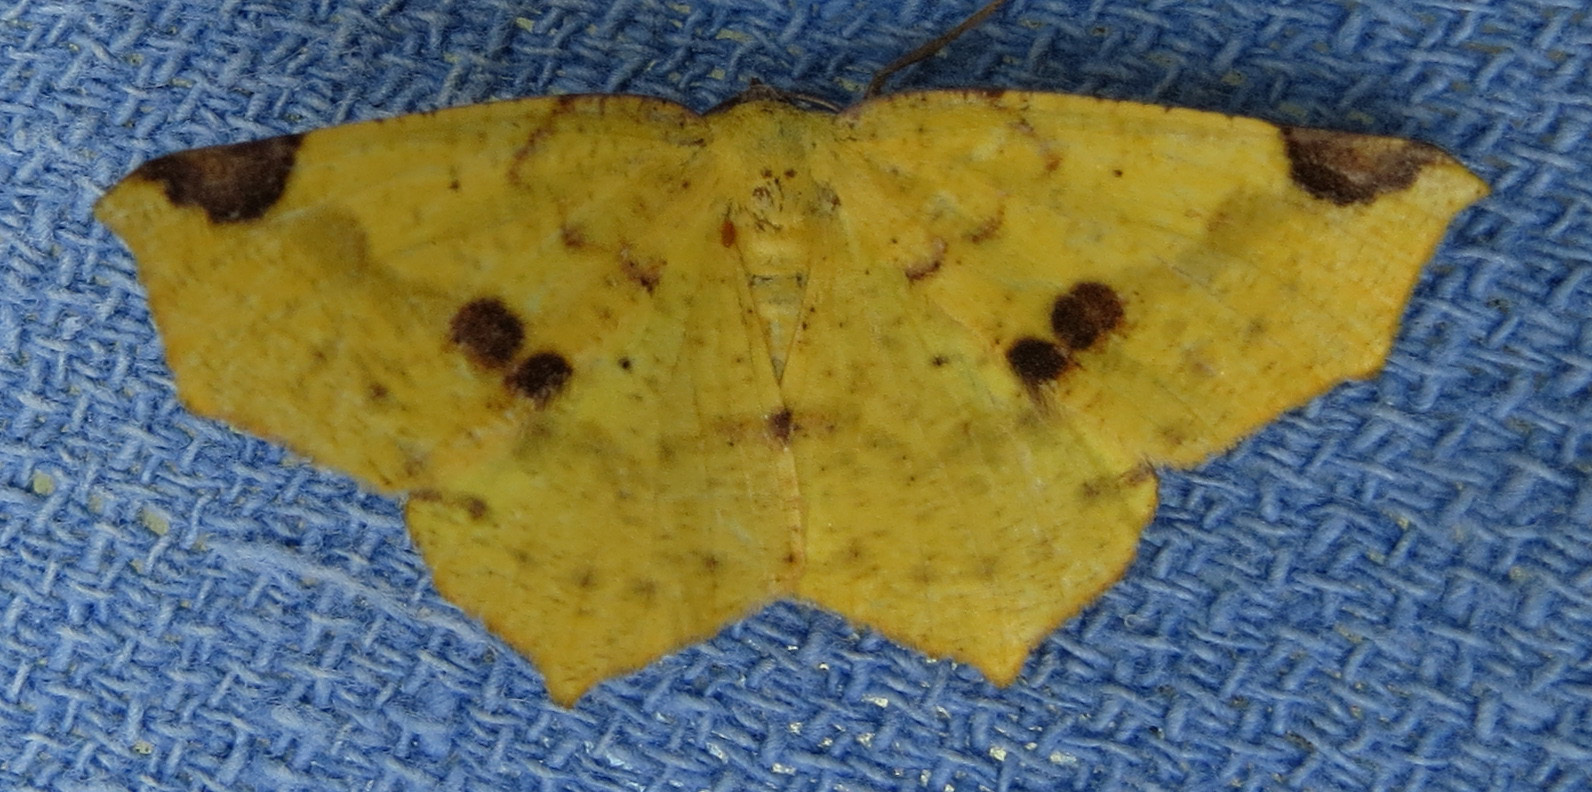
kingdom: Animalia
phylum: Arthropoda
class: Insecta
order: Lepidoptera
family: Geometridae
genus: Antepione
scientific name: Antepione thisoaria
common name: Variable antipione
